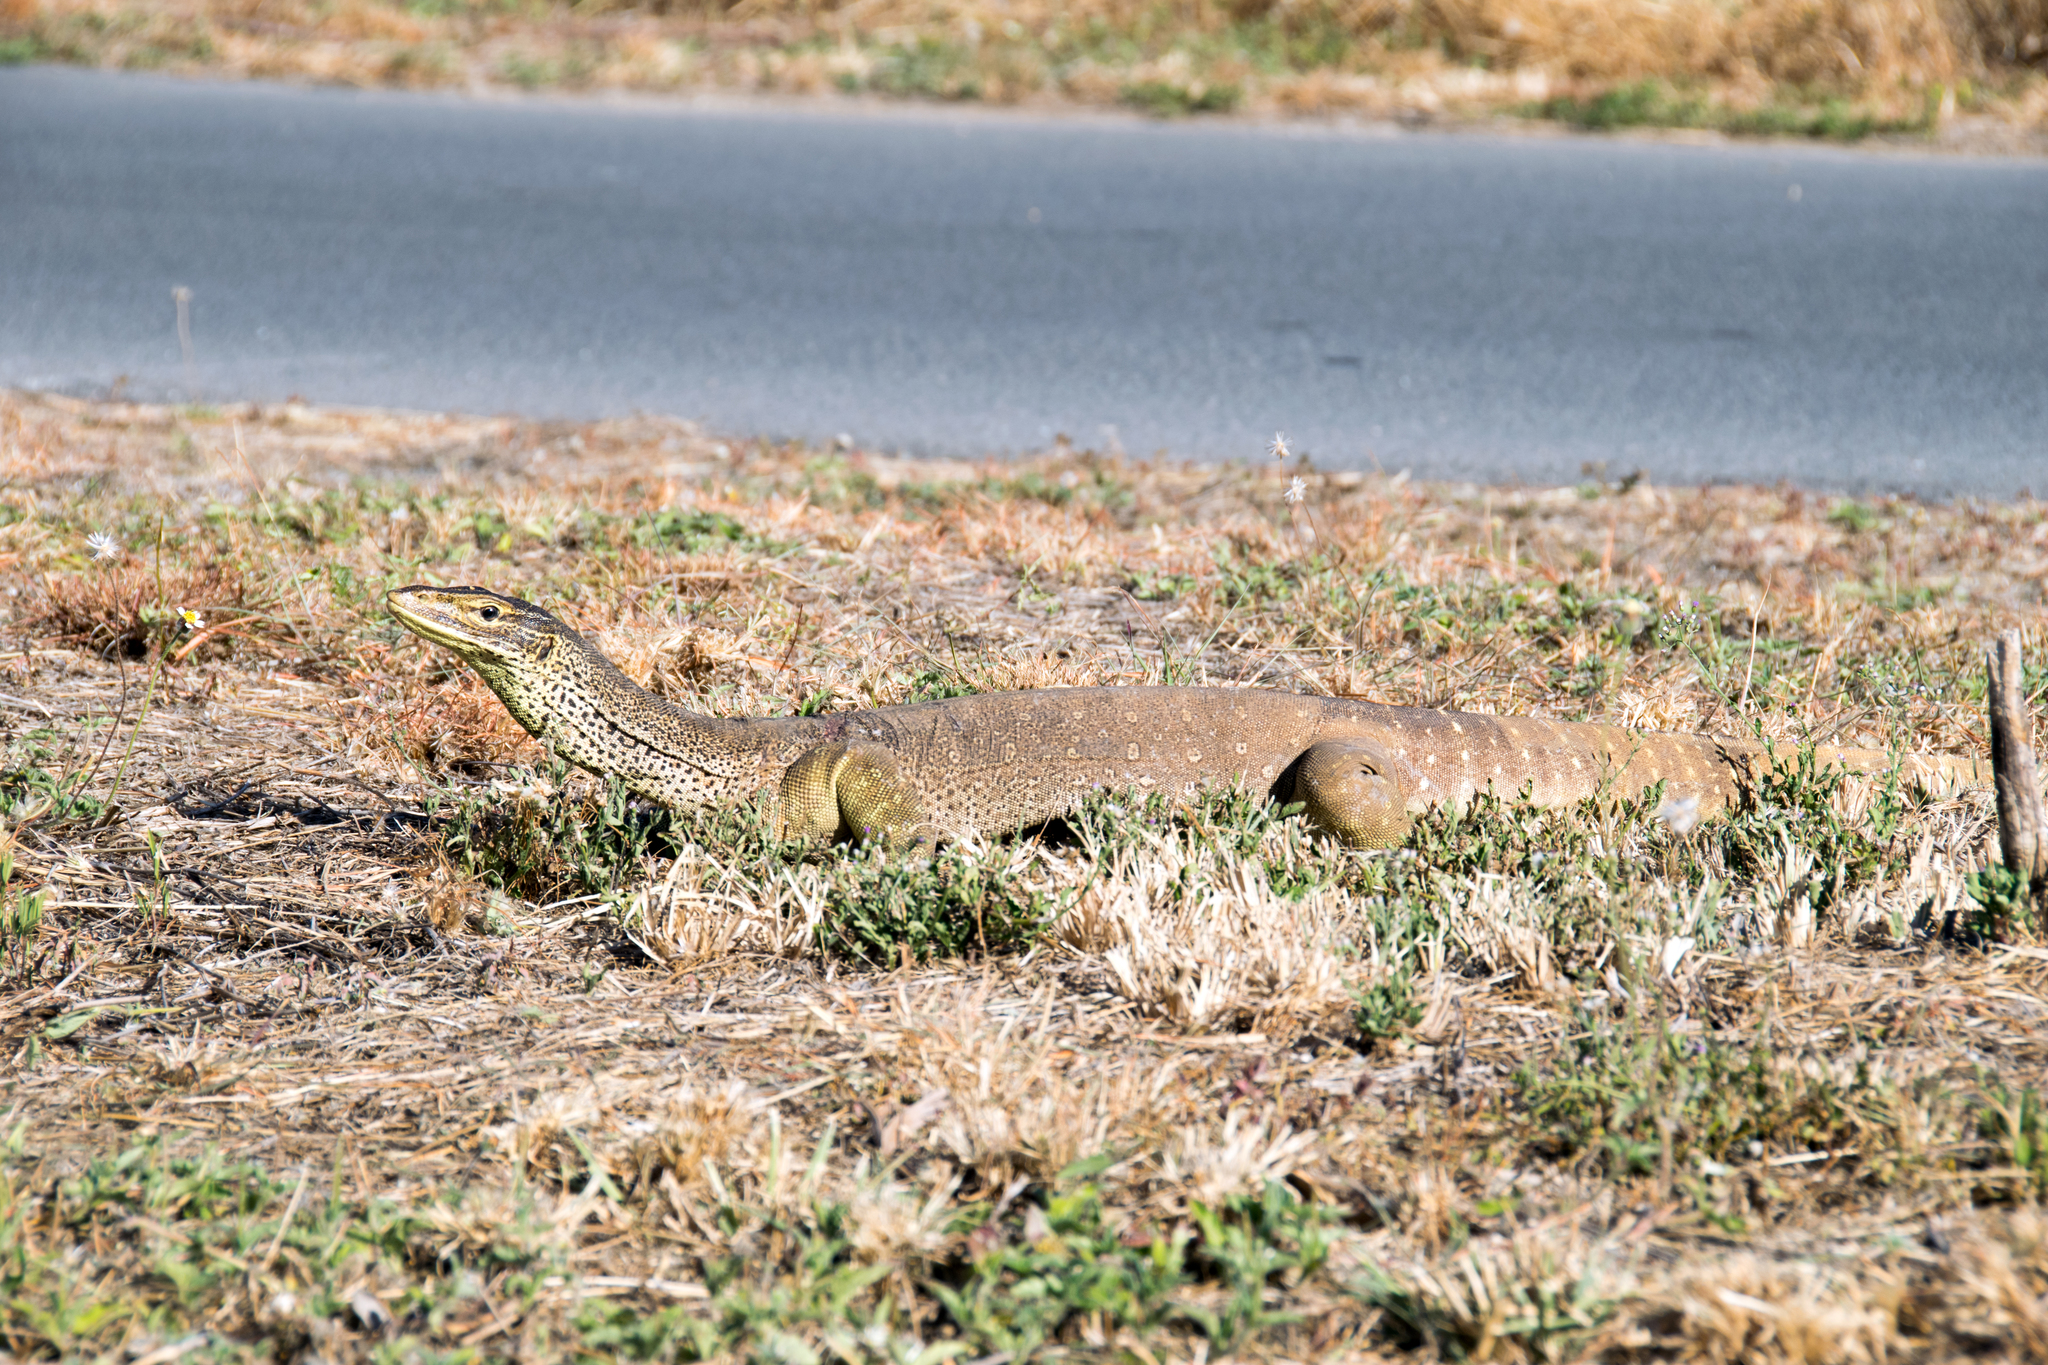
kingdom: Animalia
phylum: Chordata
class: Squamata
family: Varanidae
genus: Varanus
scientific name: Varanus panoptes
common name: Yellow-spotted monitor
